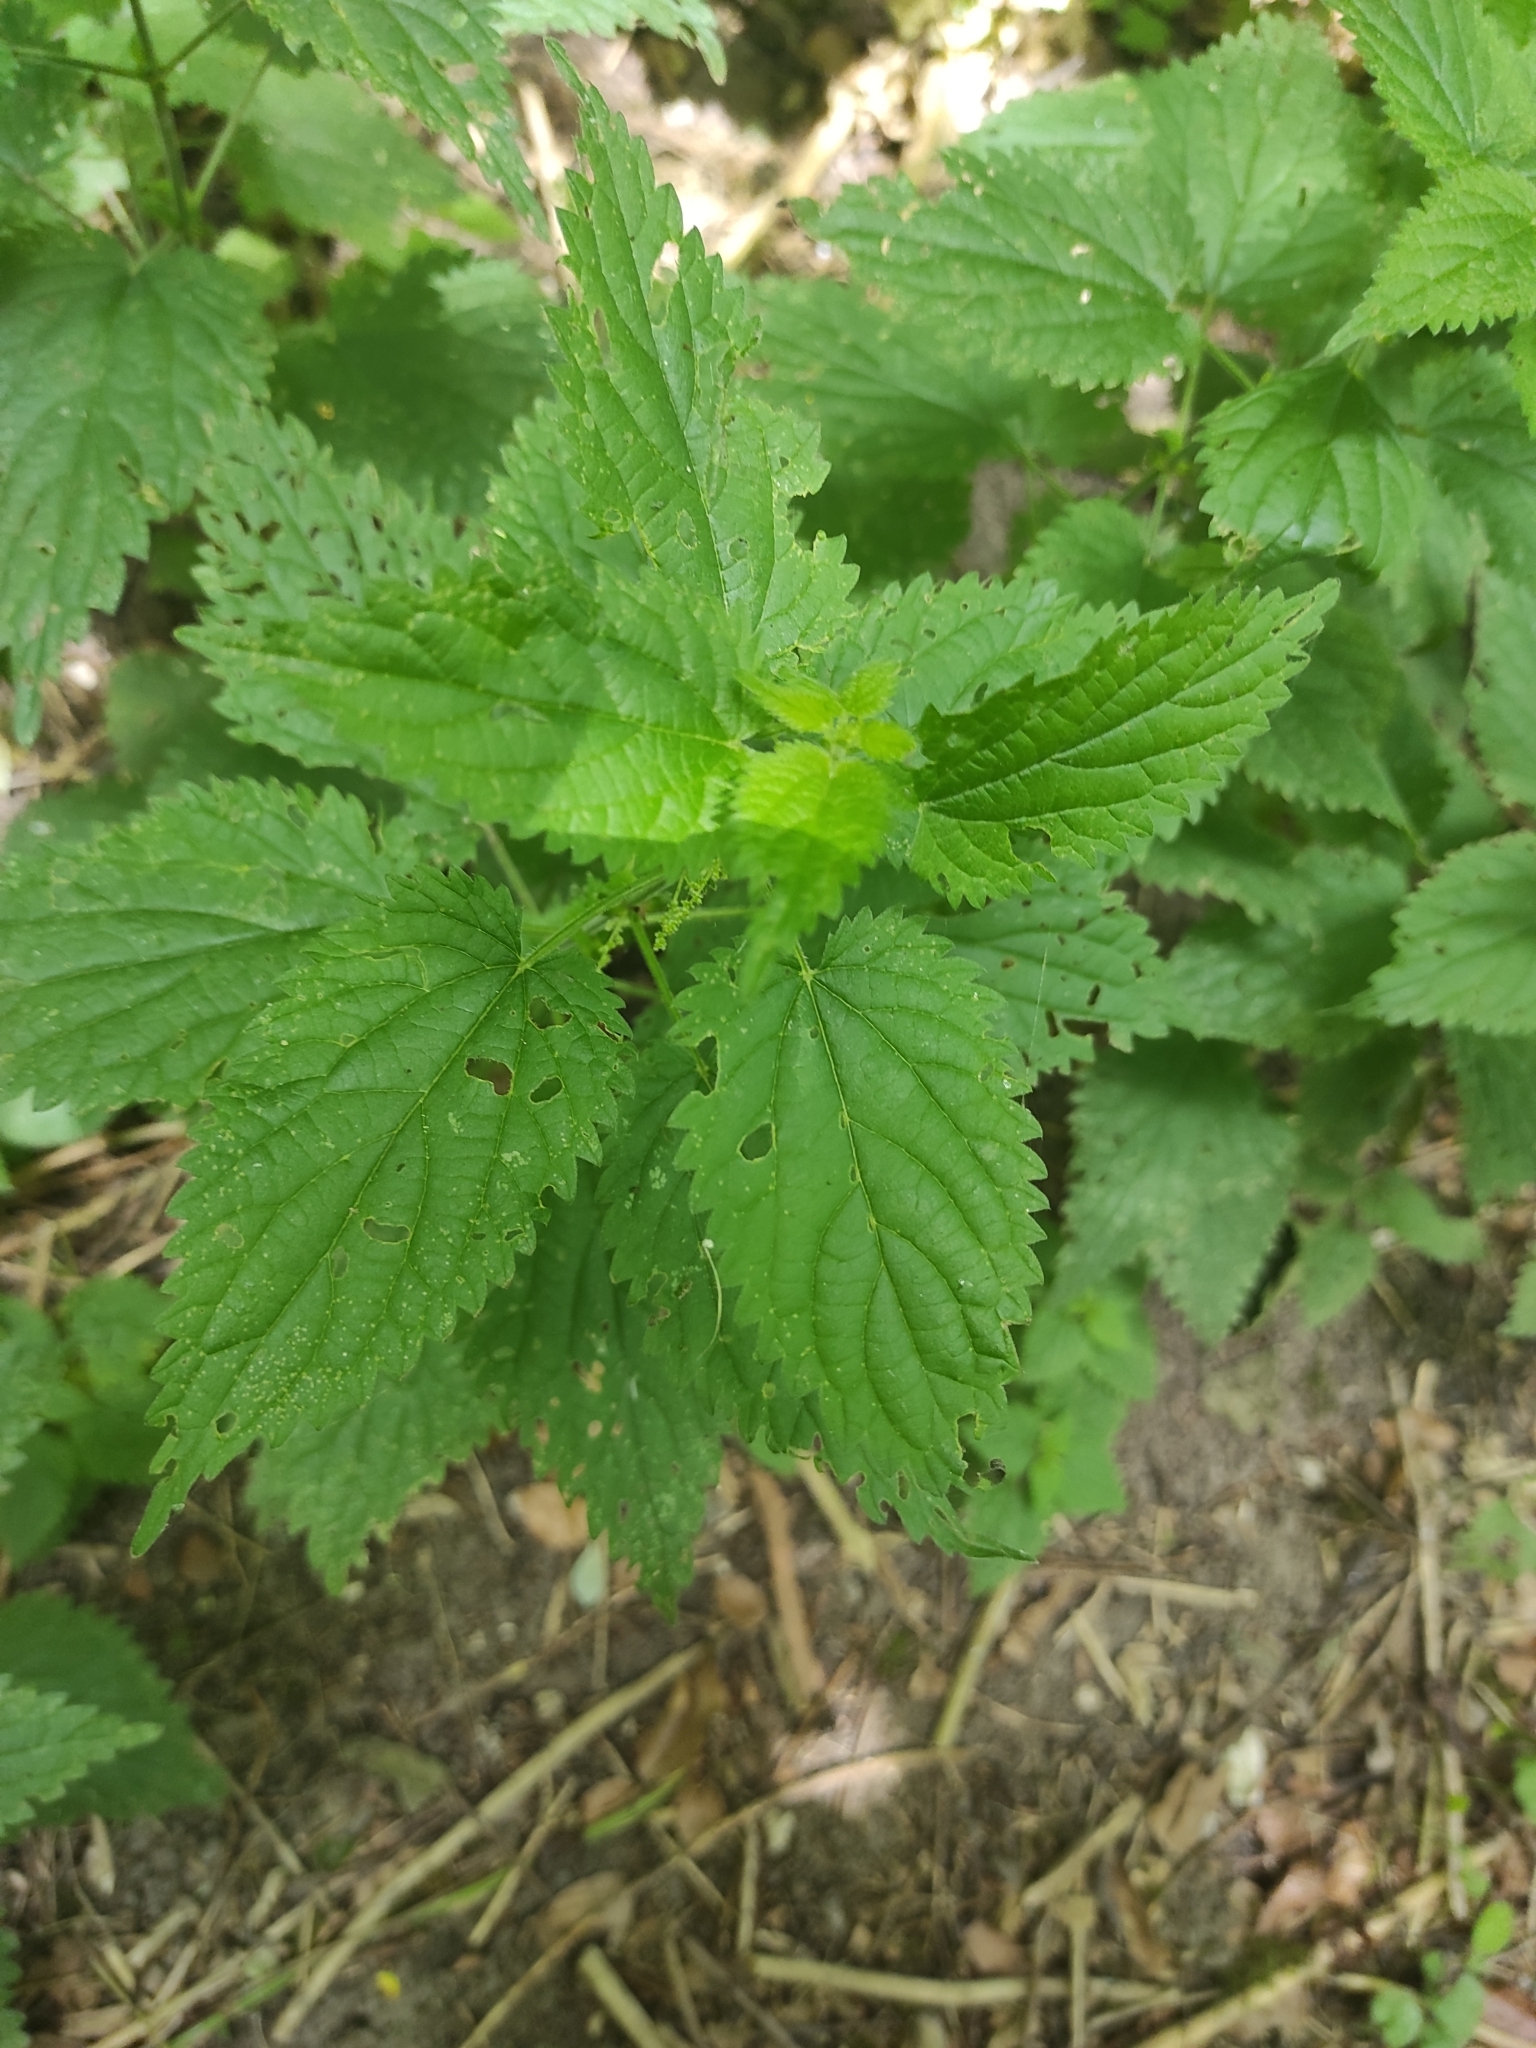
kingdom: Plantae
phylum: Tracheophyta
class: Magnoliopsida
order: Rosales
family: Urticaceae
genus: Urtica
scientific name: Urtica dioica
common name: Common nettle
